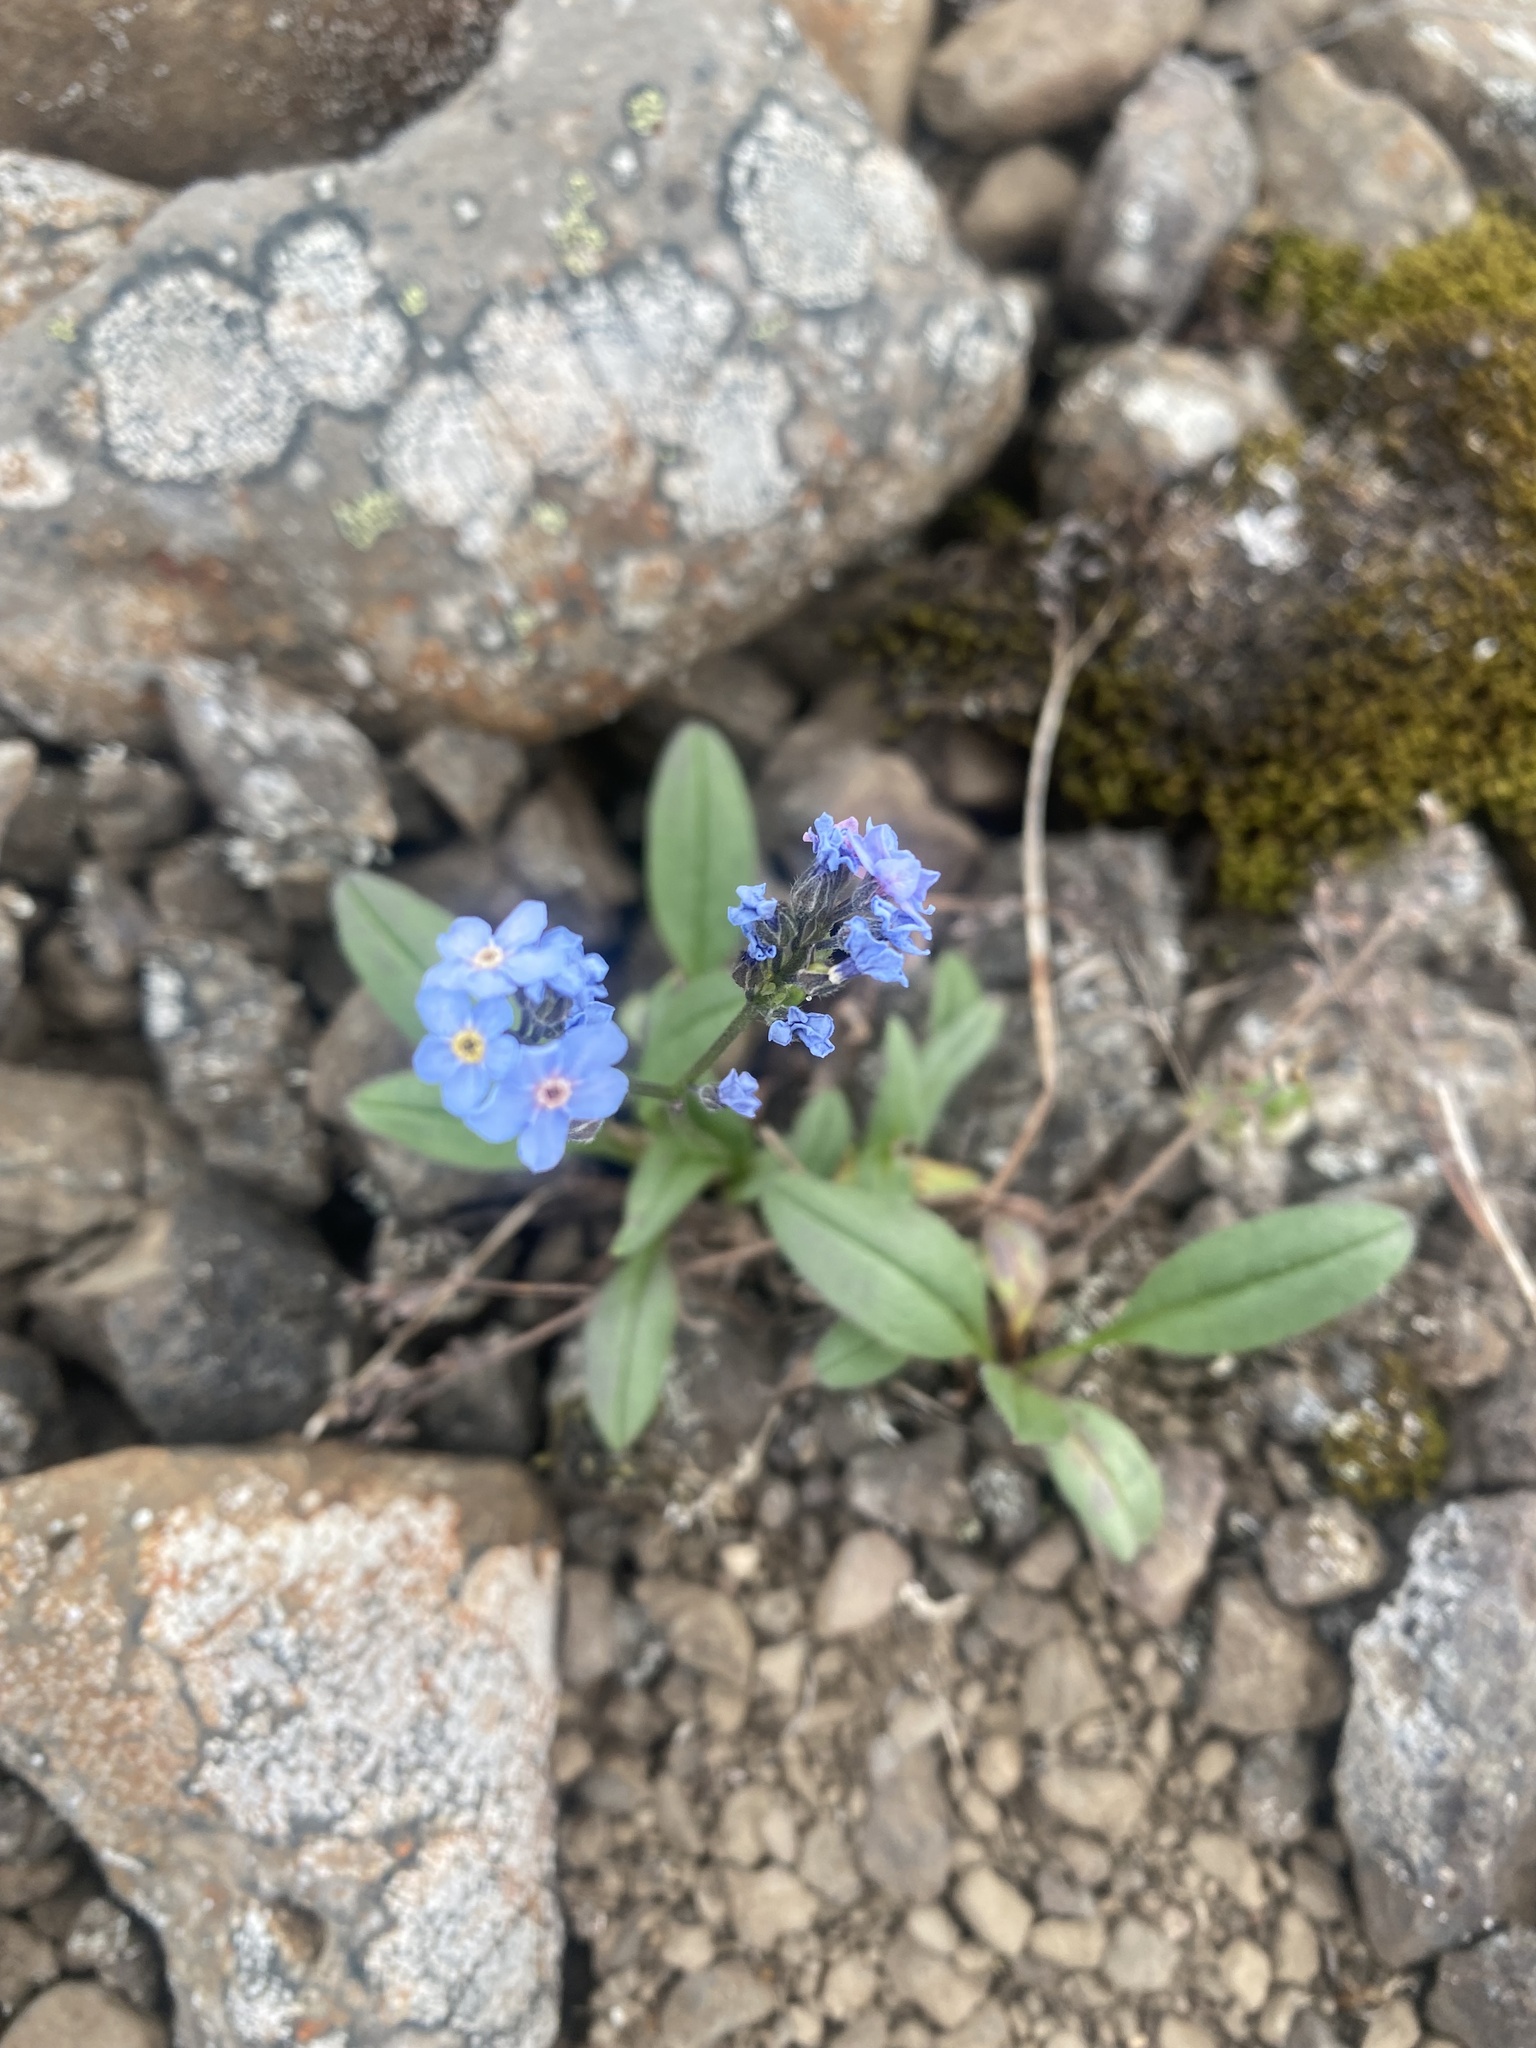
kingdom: Plantae
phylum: Tracheophyta
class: Magnoliopsida
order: Boraginales
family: Boraginaceae
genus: Myosotis
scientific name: Myosotis asiatica
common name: Asian forget-me-not
